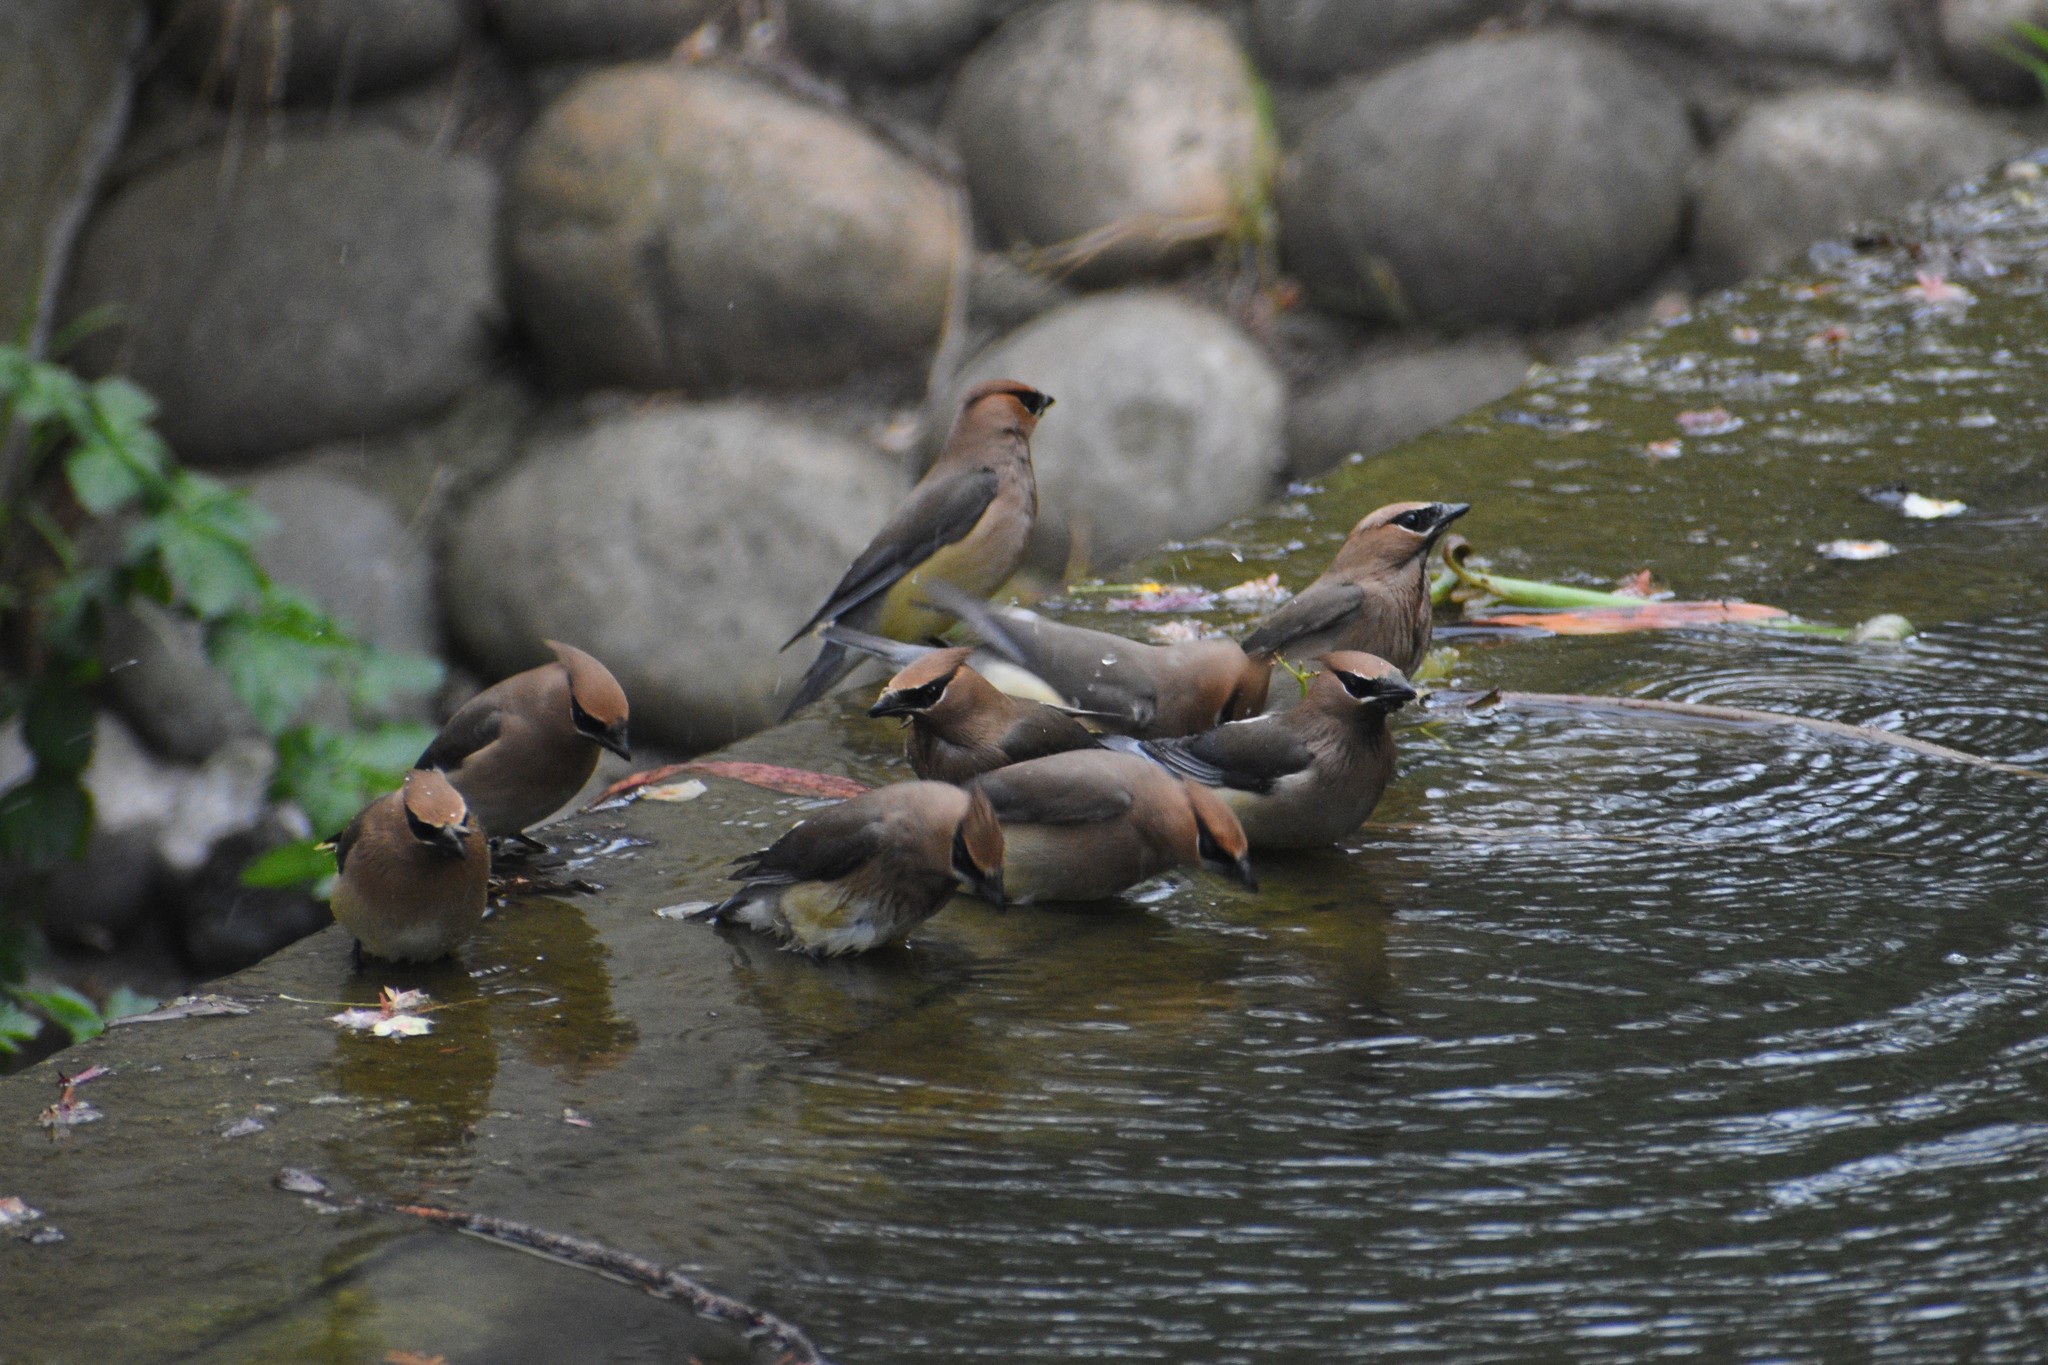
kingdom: Animalia
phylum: Chordata
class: Aves
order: Passeriformes
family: Bombycillidae
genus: Bombycilla
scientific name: Bombycilla cedrorum
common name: Cedar waxwing
